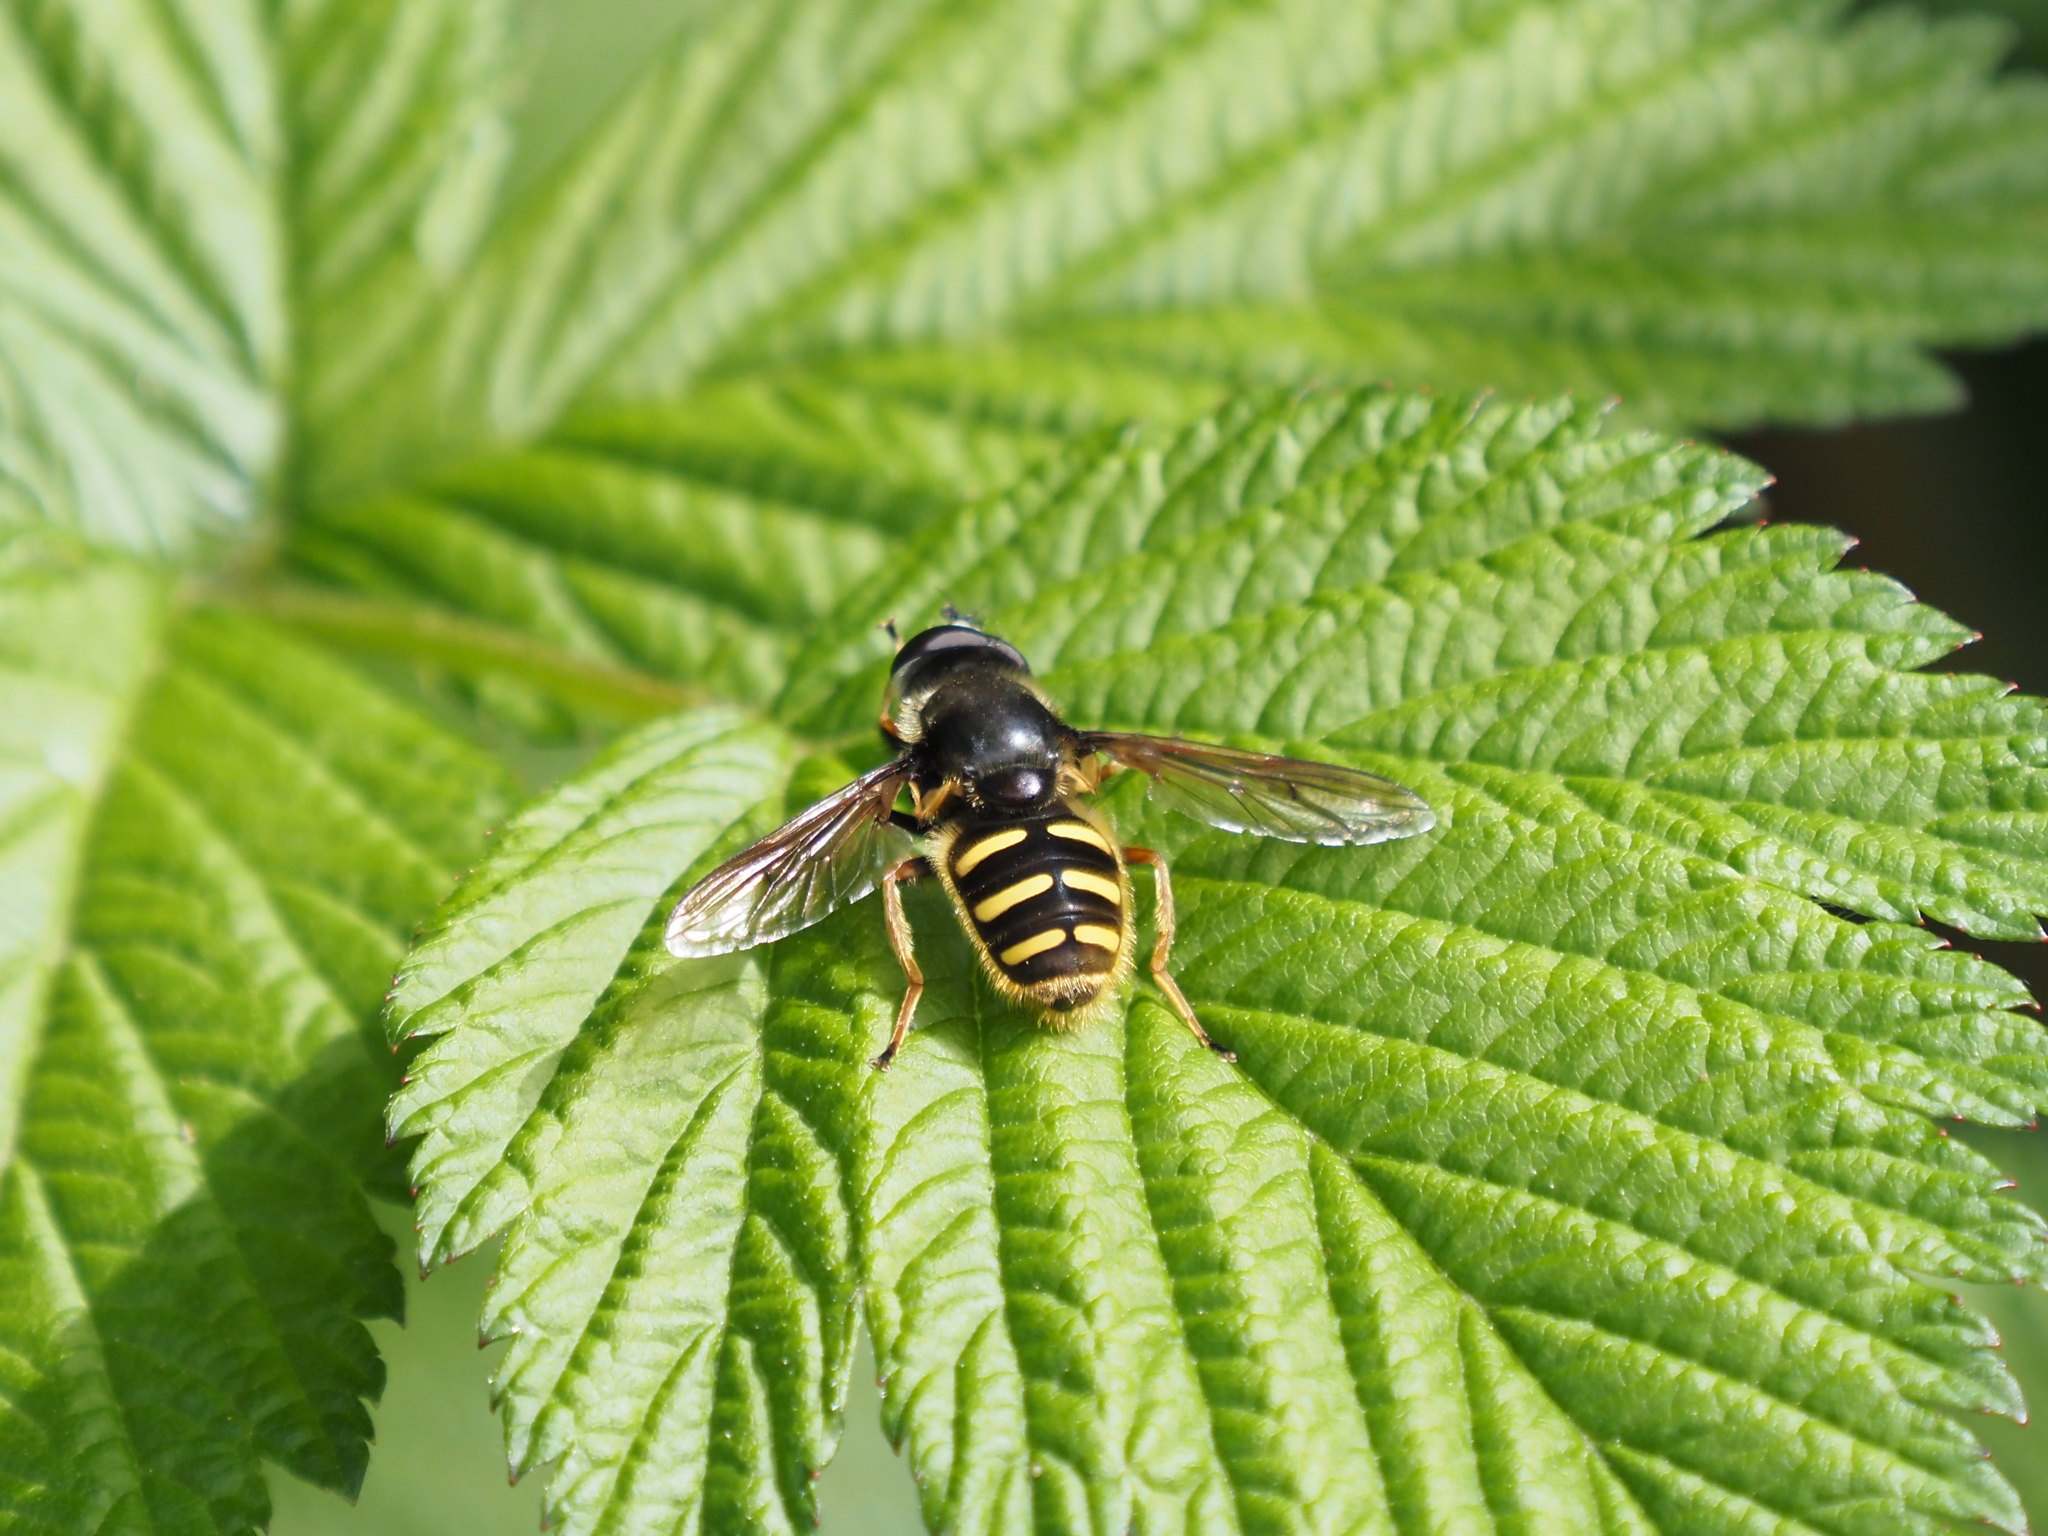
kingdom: Animalia
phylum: Arthropoda
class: Insecta
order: Diptera
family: Syrphidae
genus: Sericomyia
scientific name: Sericomyia chalcopyga
